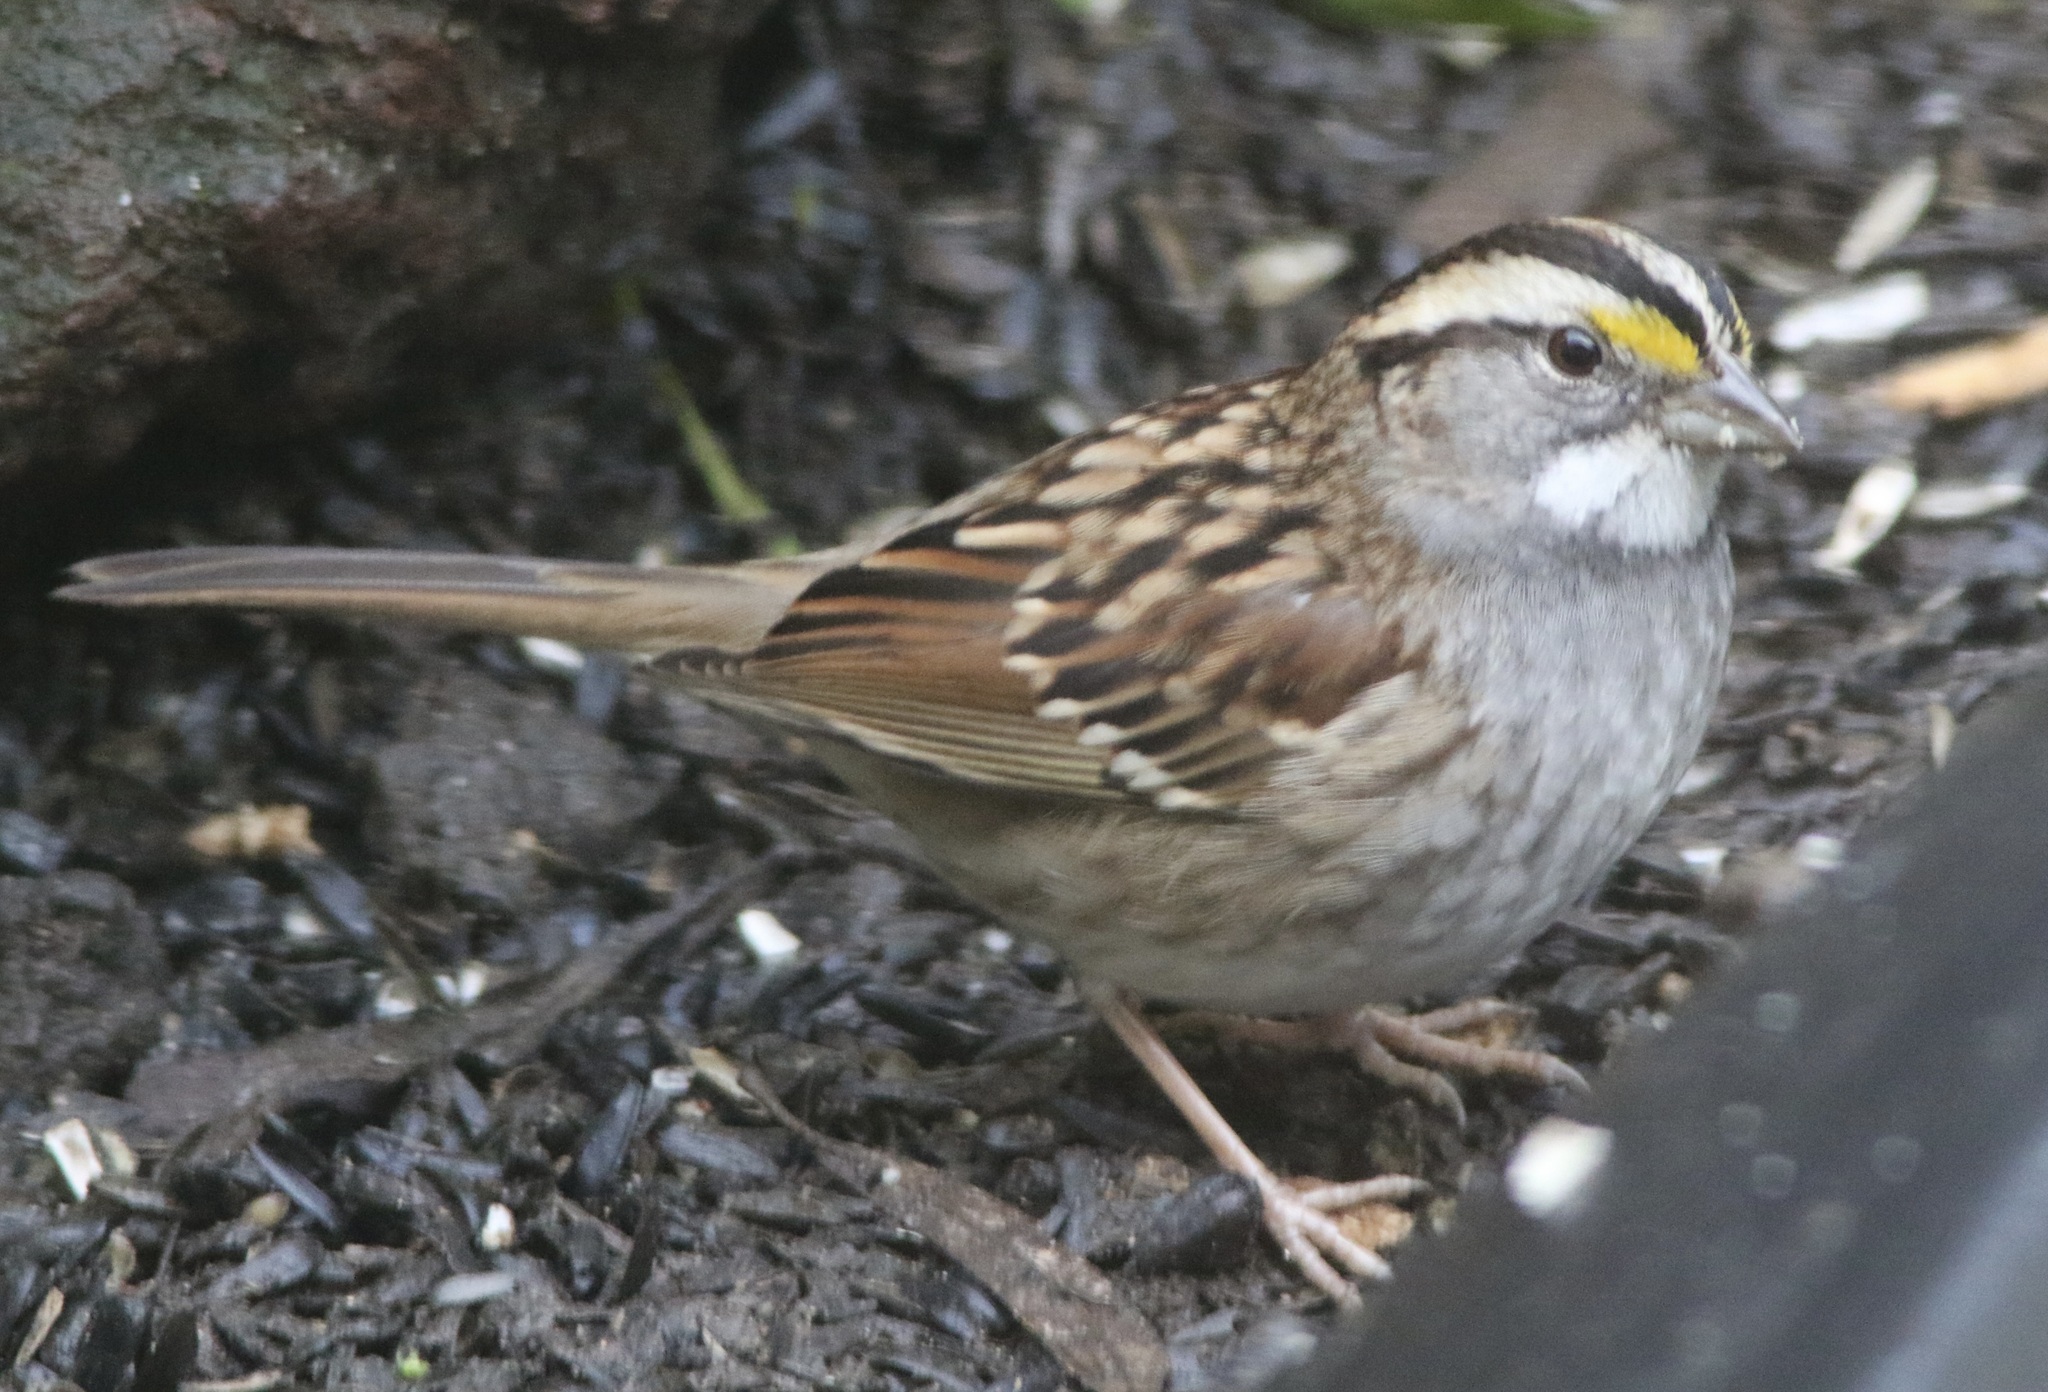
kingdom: Animalia
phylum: Chordata
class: Aves
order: Passeriformes
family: Passerellidae
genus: Zonotrichia
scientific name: Zonotrichia albicollis
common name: White-throated sparrow
